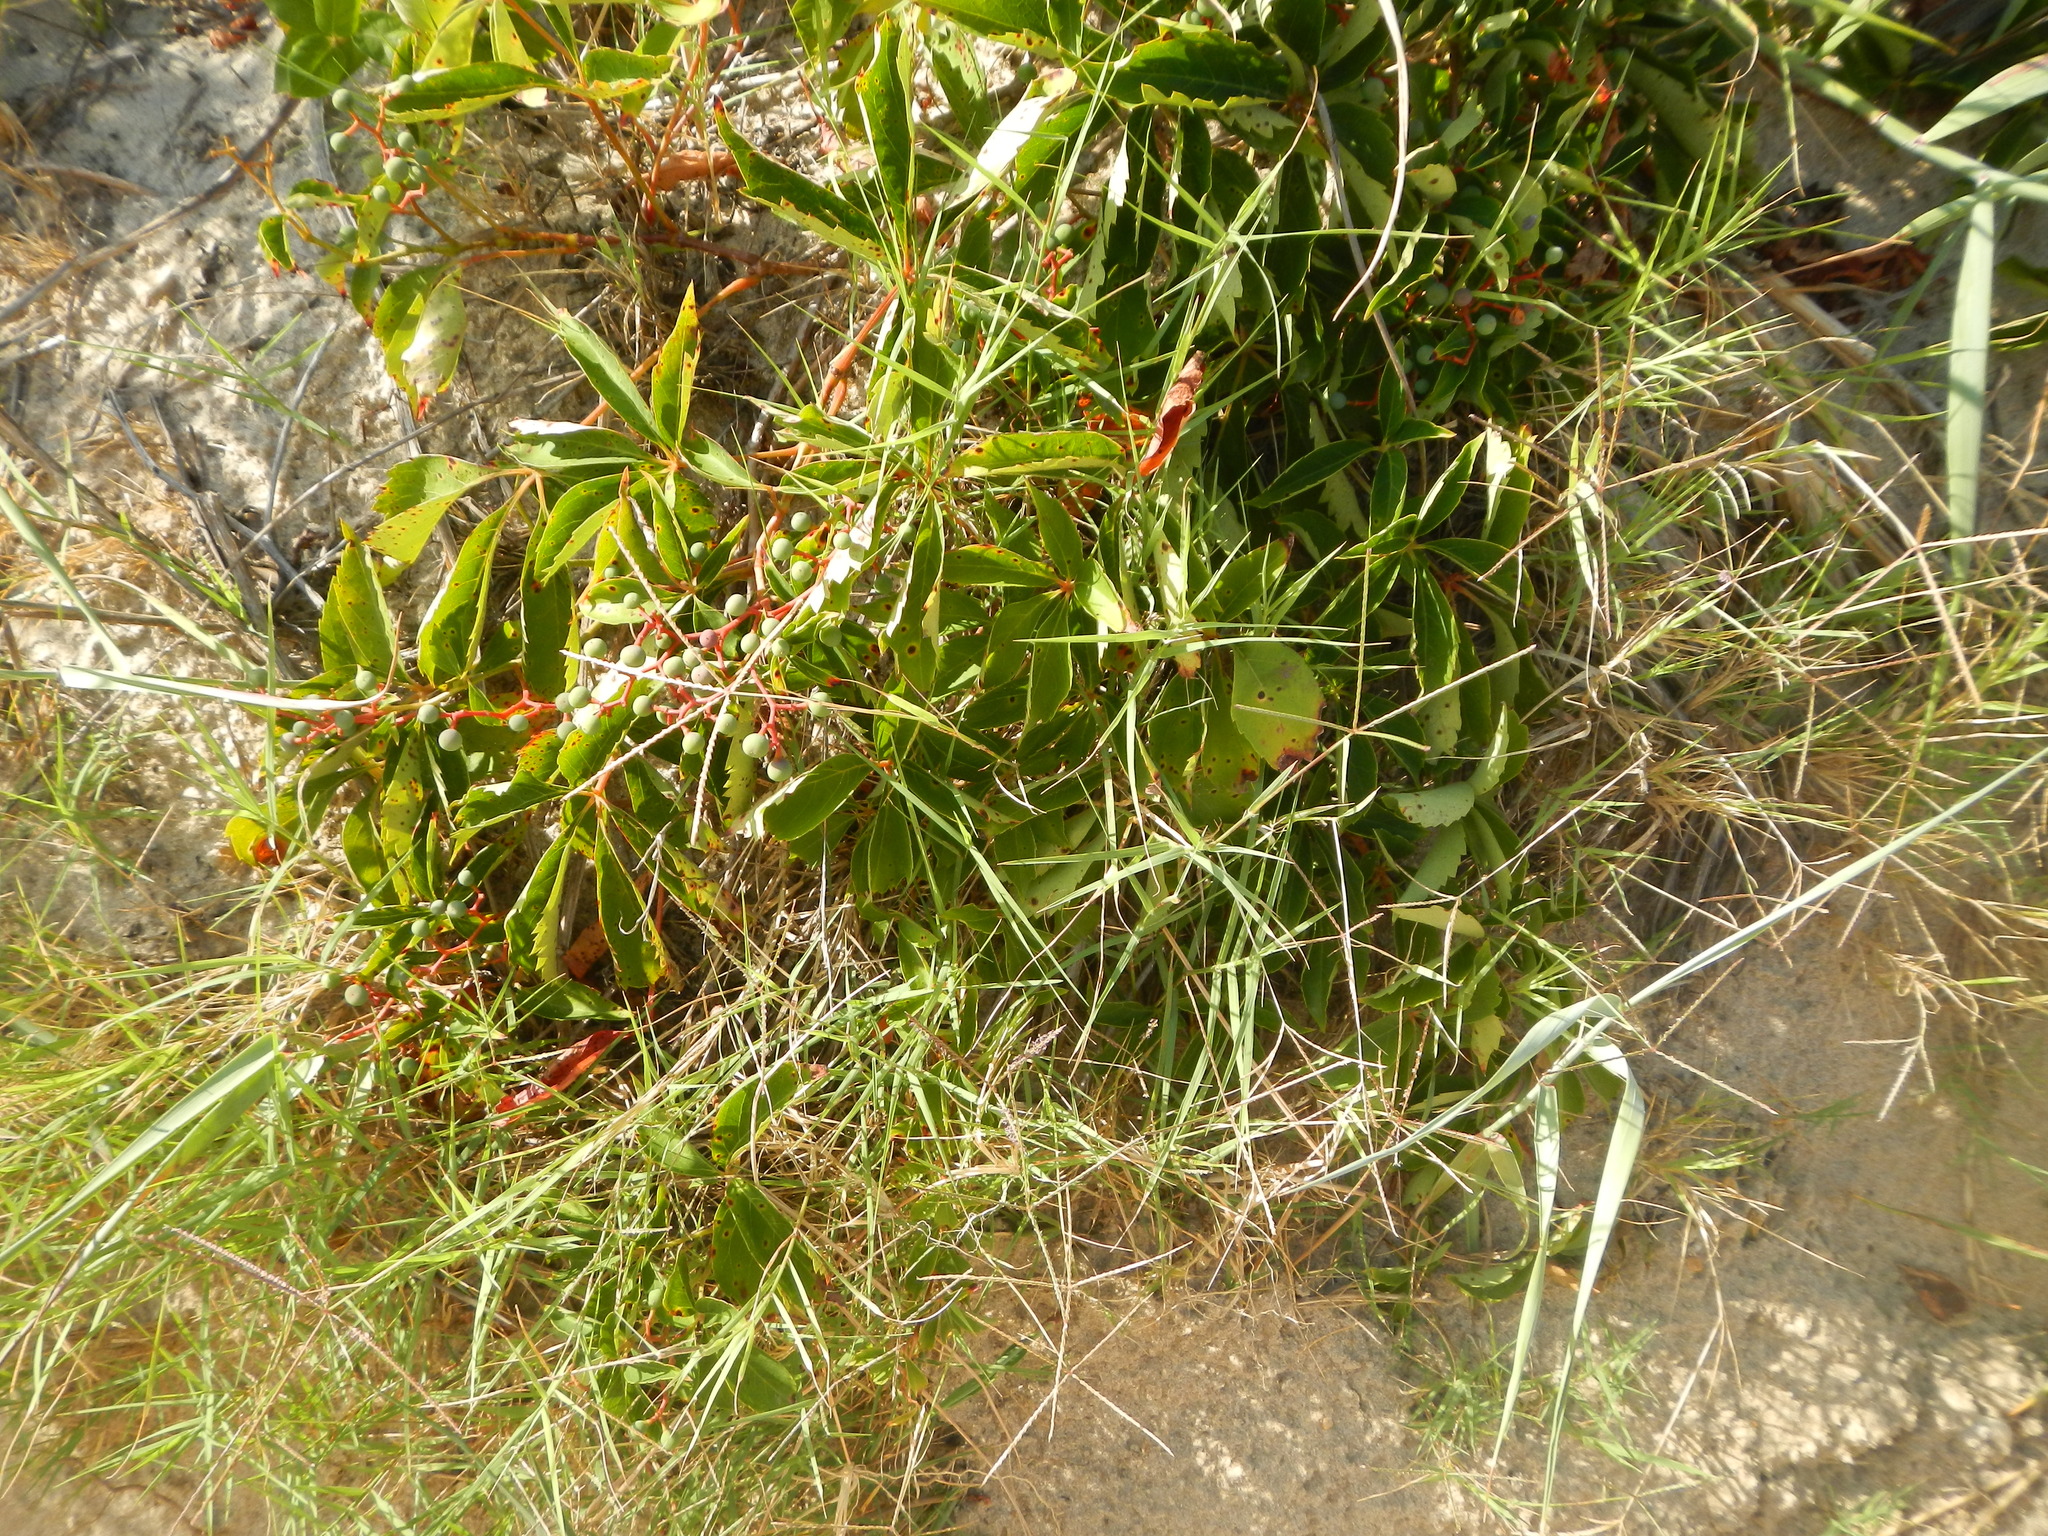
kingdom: Plantae
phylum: Tracheophyta
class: Magnoliopsida
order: Vitales
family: Vitaceae
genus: Parthenocissus
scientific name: Parthenocissus quinquefolia
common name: Virginia-creeper
